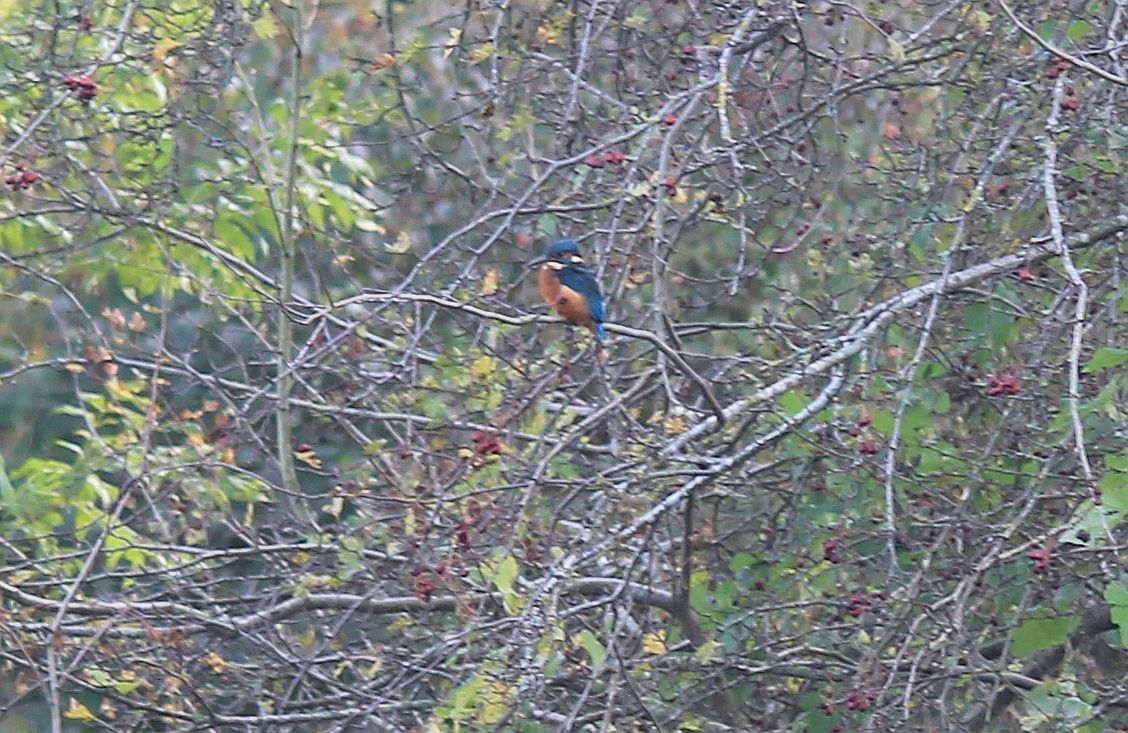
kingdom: Animalia
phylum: Chordata
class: Aves
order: Coraciiformes
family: Alcedinidae
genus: Alcedo
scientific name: Alcedo atthis
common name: Common kingfisher
